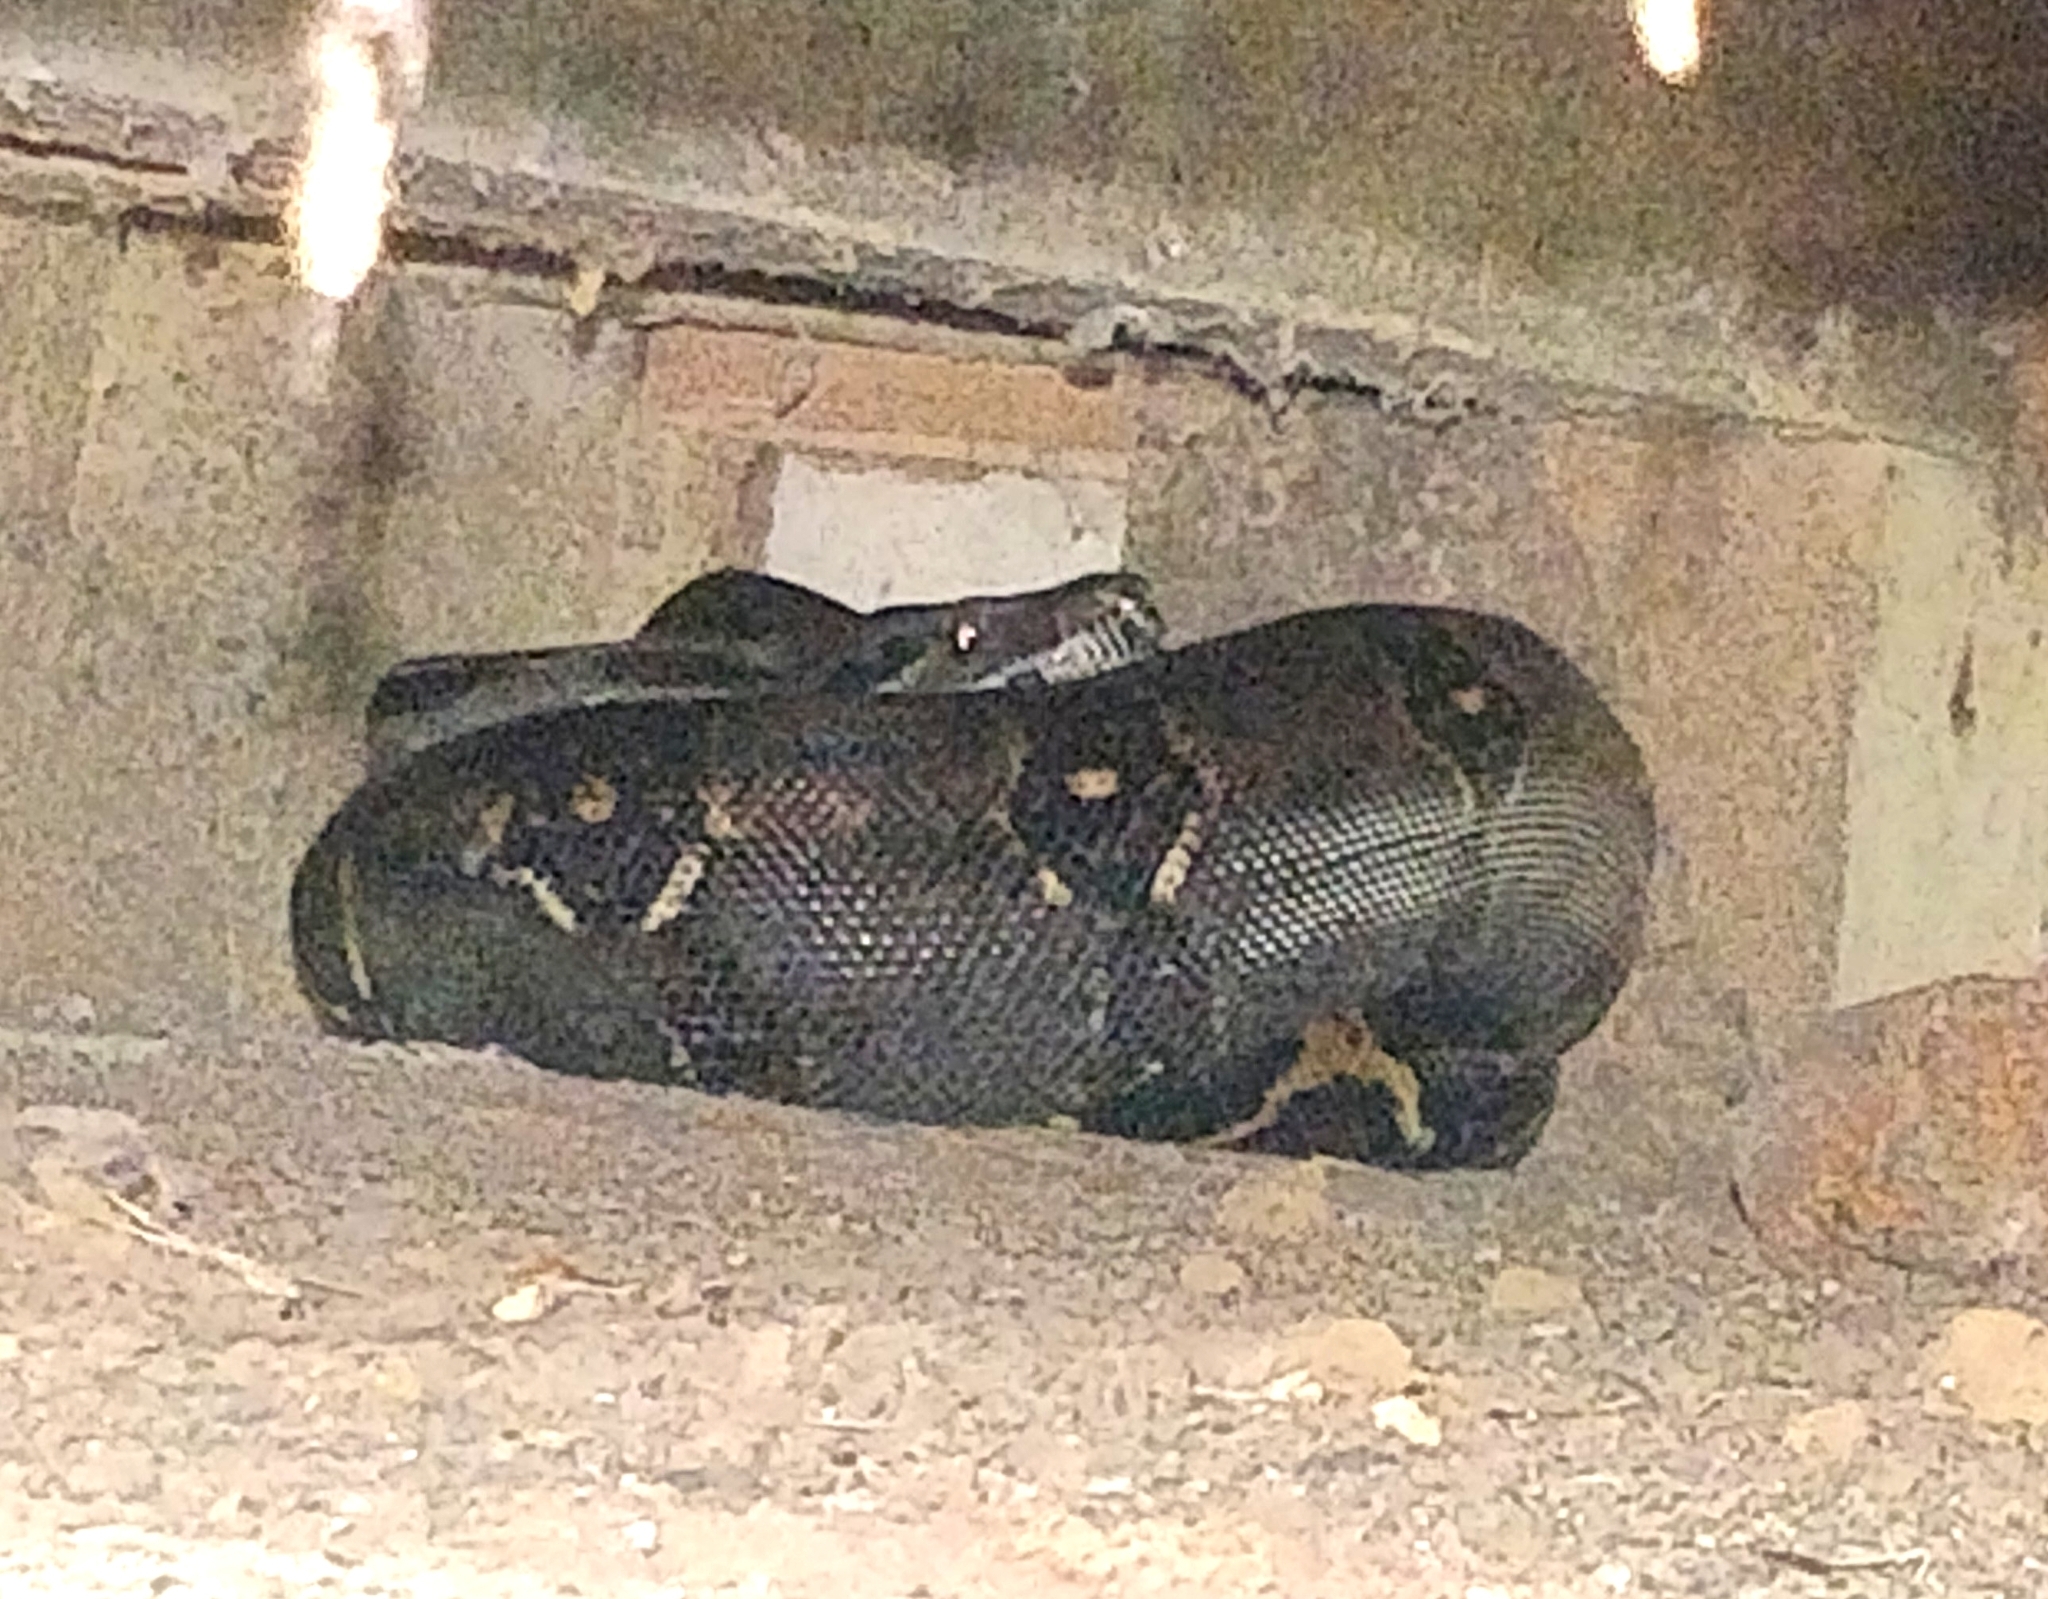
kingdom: Animalia
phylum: Chordata
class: Squamata
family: Boidae
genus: Boa
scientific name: Boa imperator
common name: Central american boa
